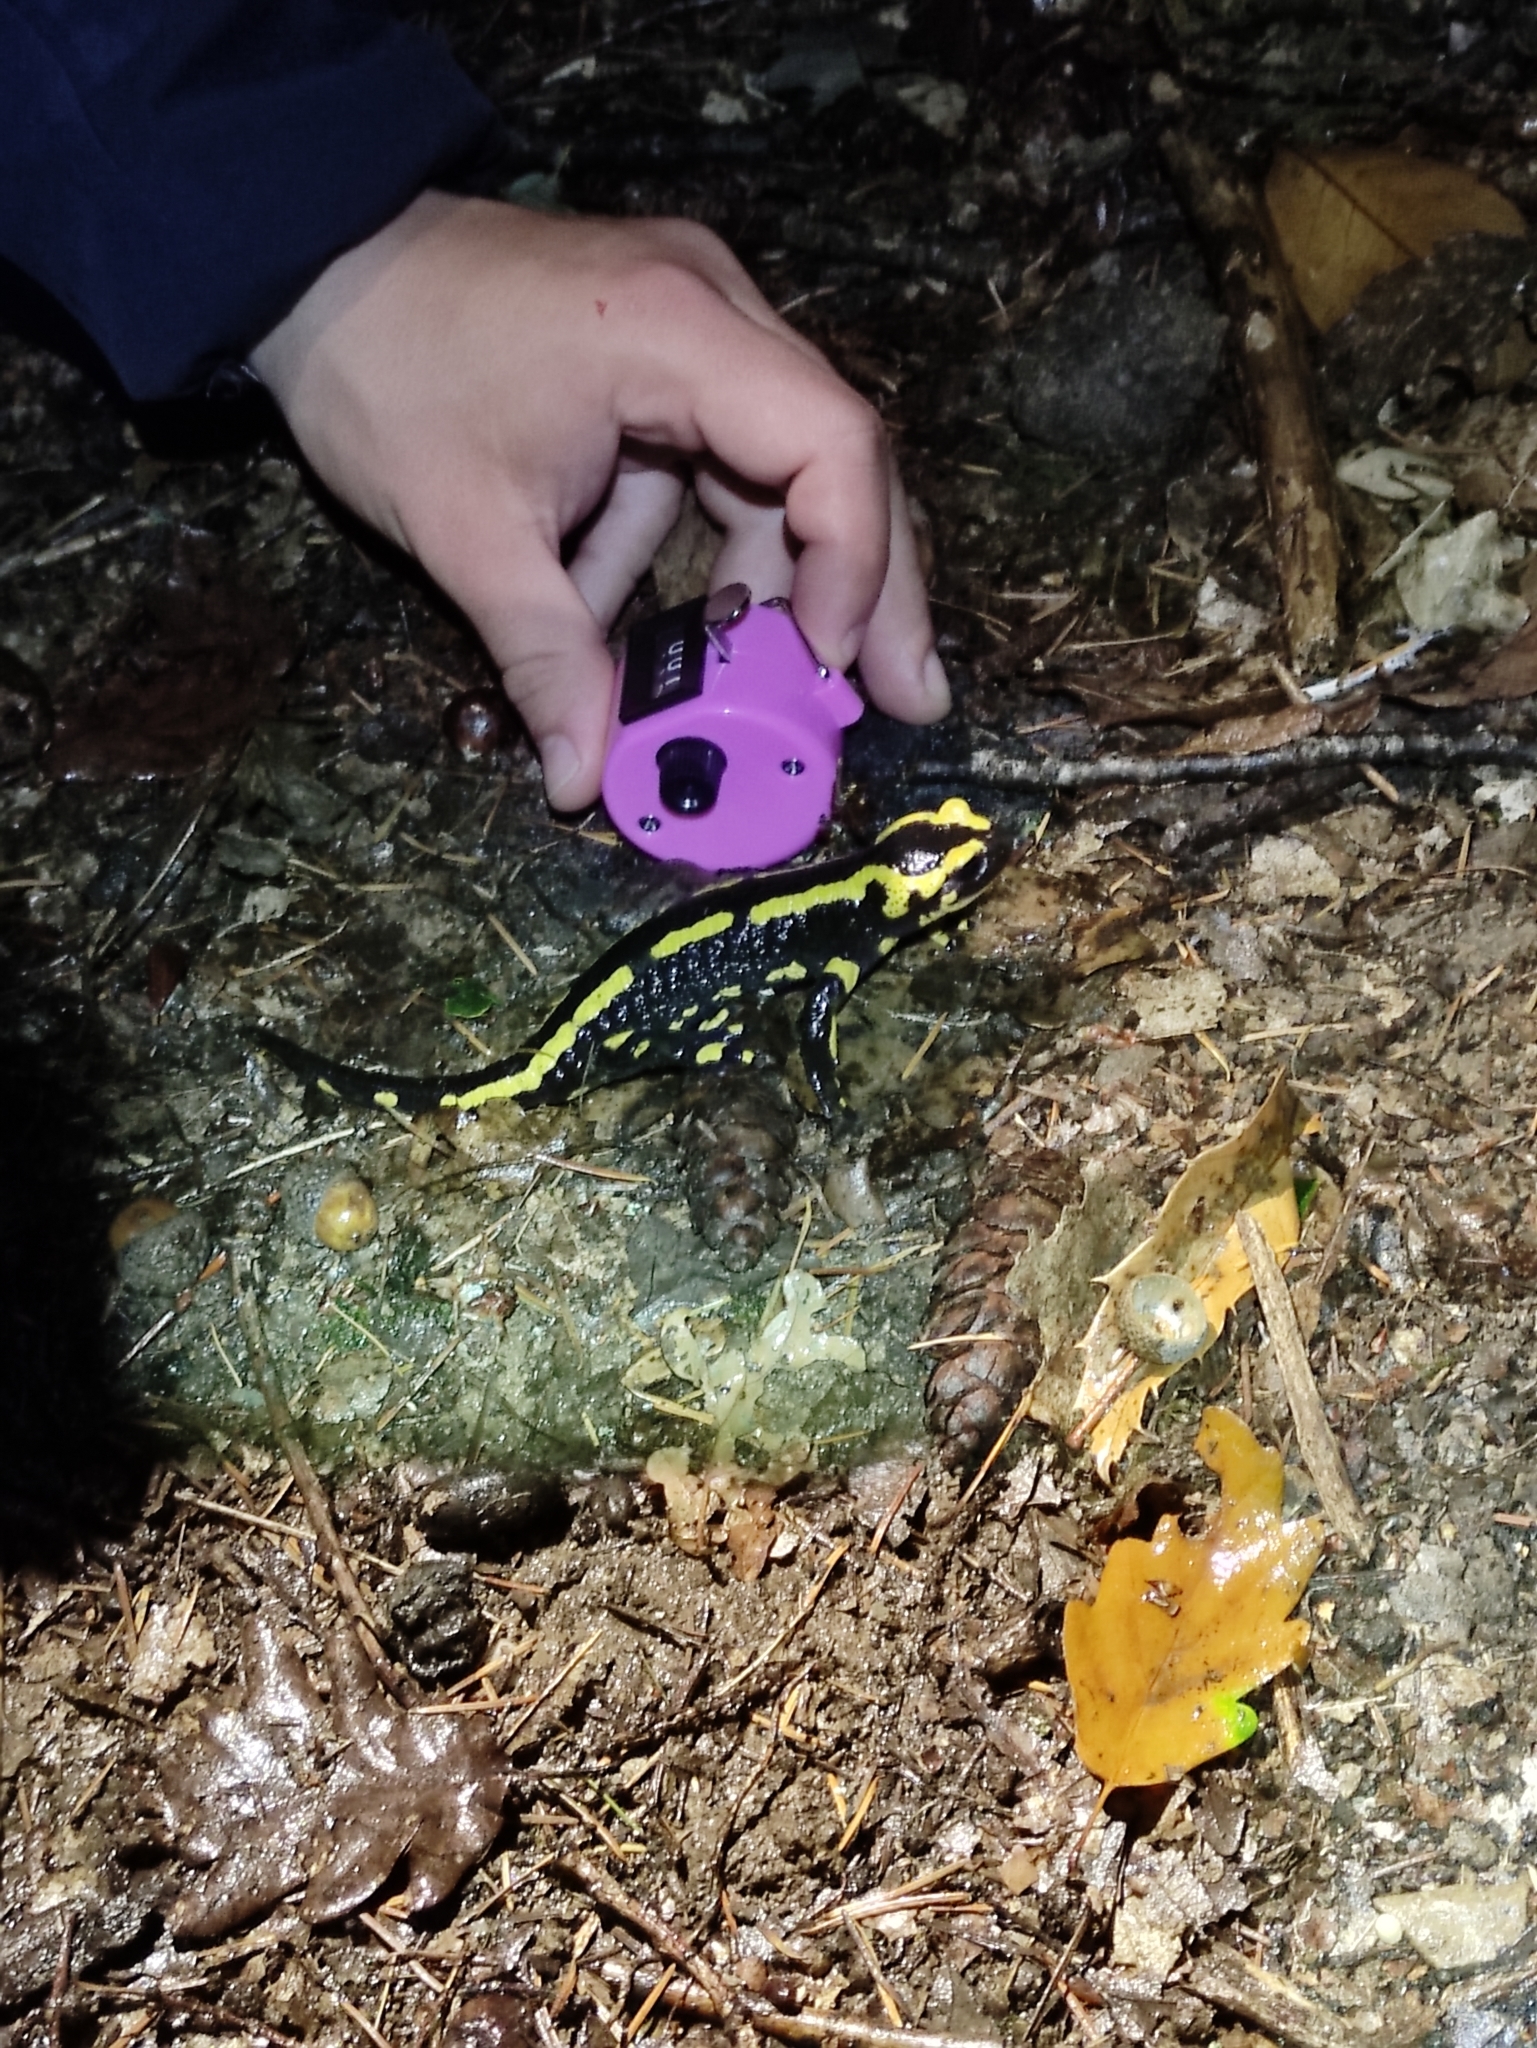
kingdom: Animalia
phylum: Chordata
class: Amphibia
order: Caudata
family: Salamandridae
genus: Salamandra
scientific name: Salamandra salamandra
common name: Fire salamander
